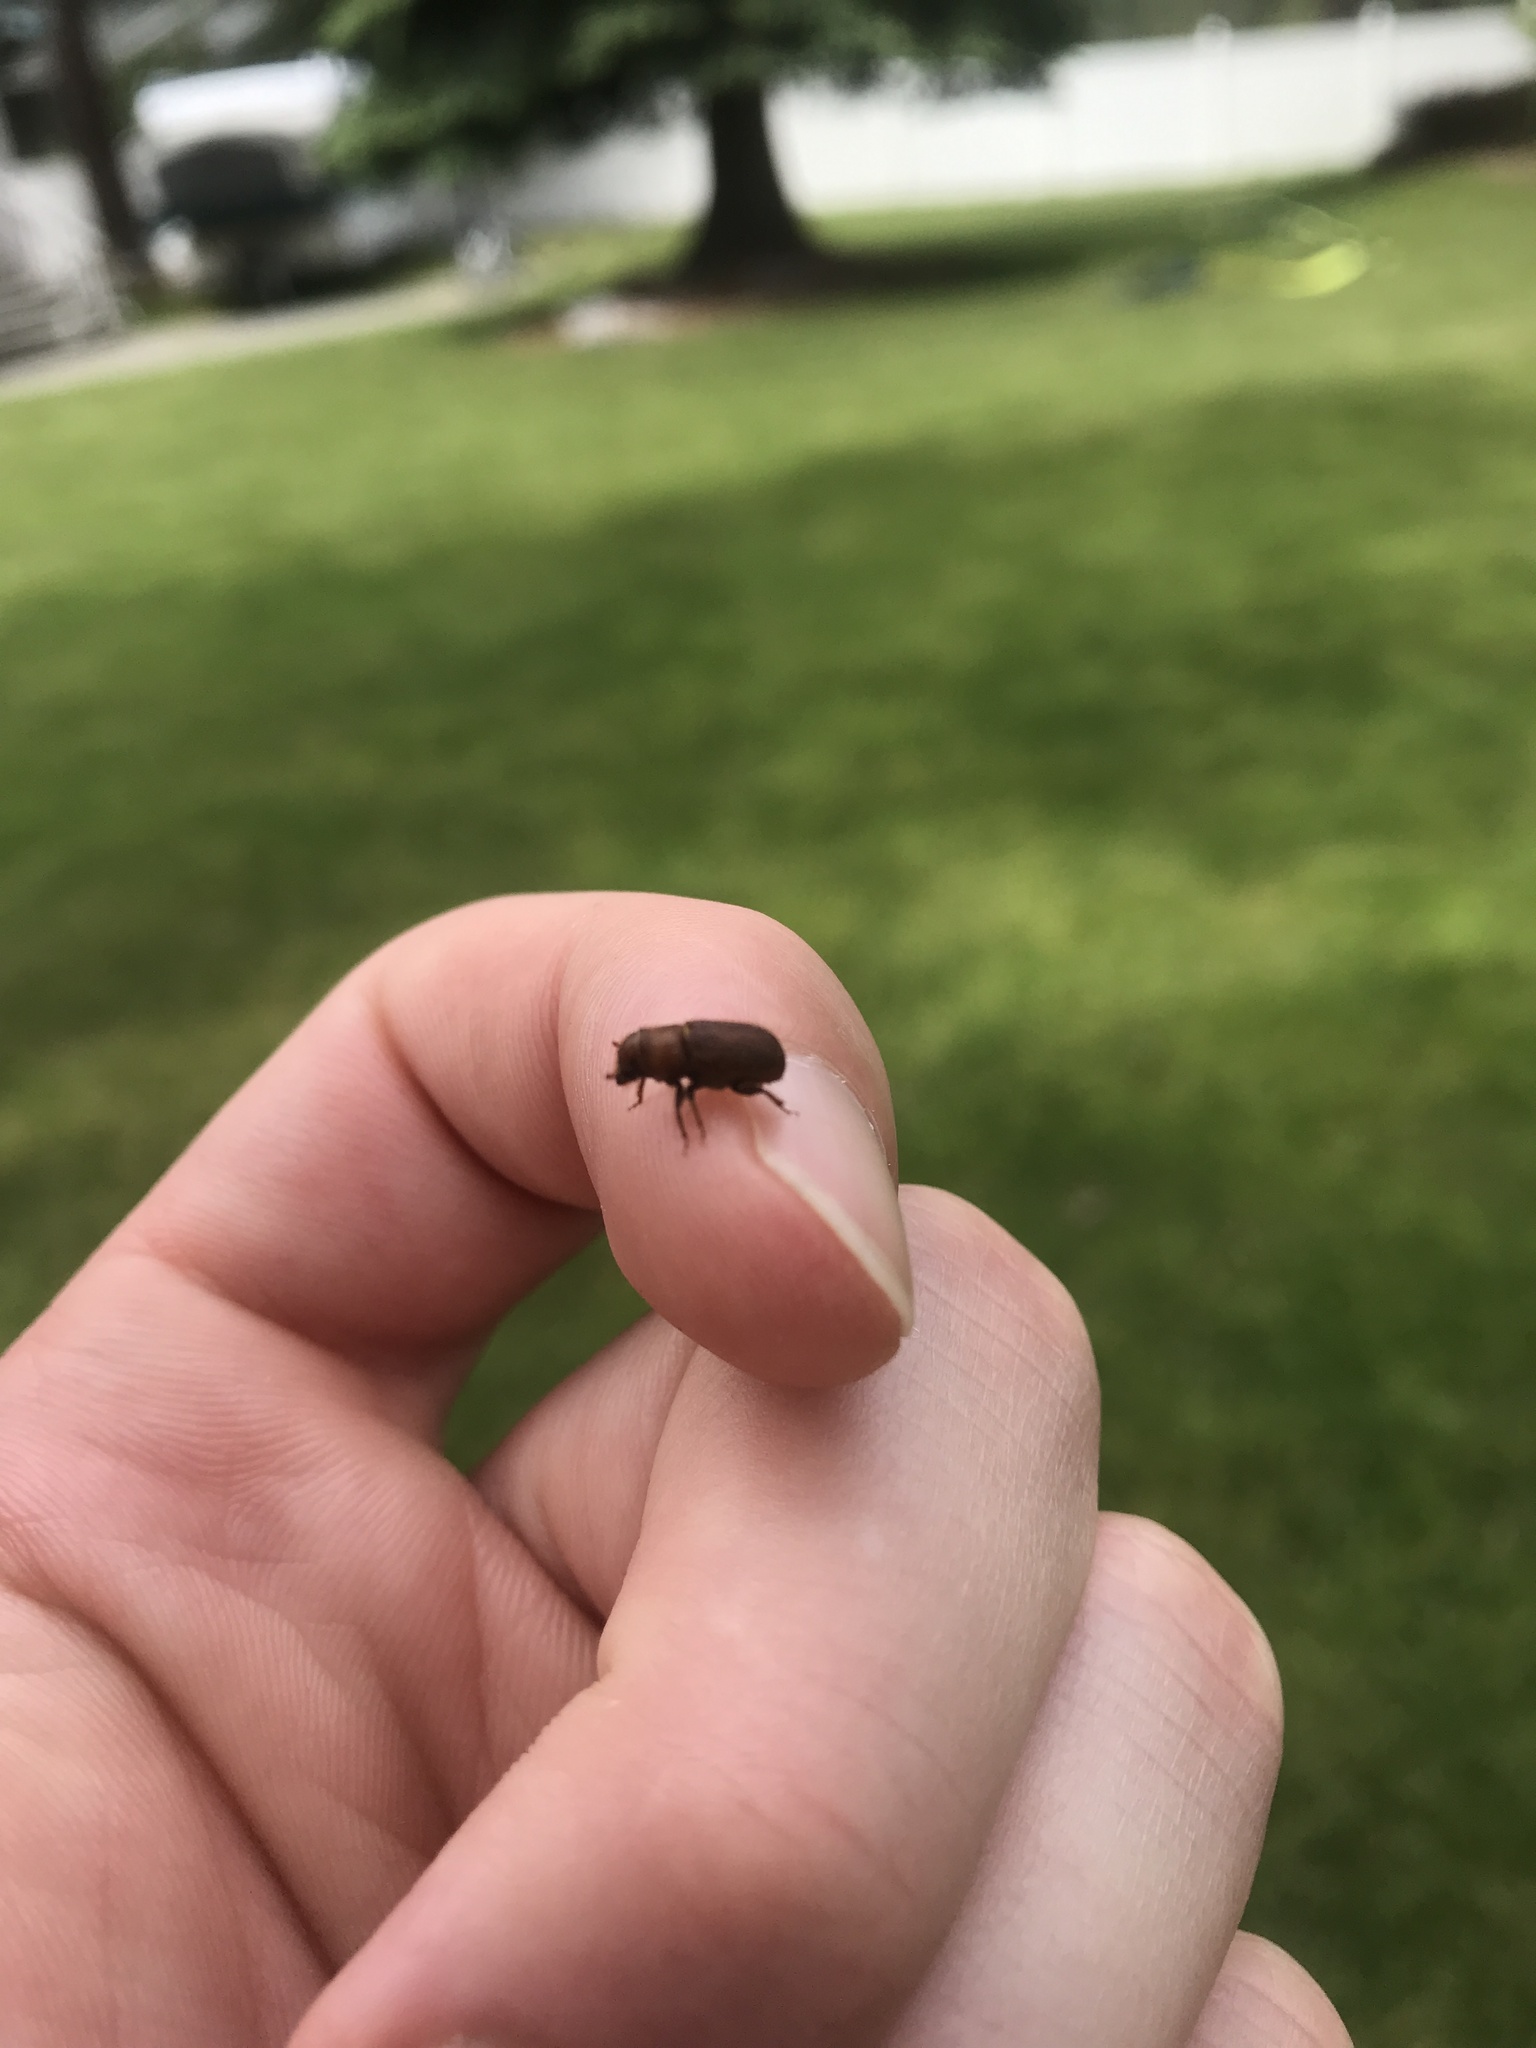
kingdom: Animalia
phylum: Arthropoda
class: Insecta
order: Coleoptera
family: Curculionidae
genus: Dendroctonus
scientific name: Dendroctonus valens
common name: Red turpentine beetle
